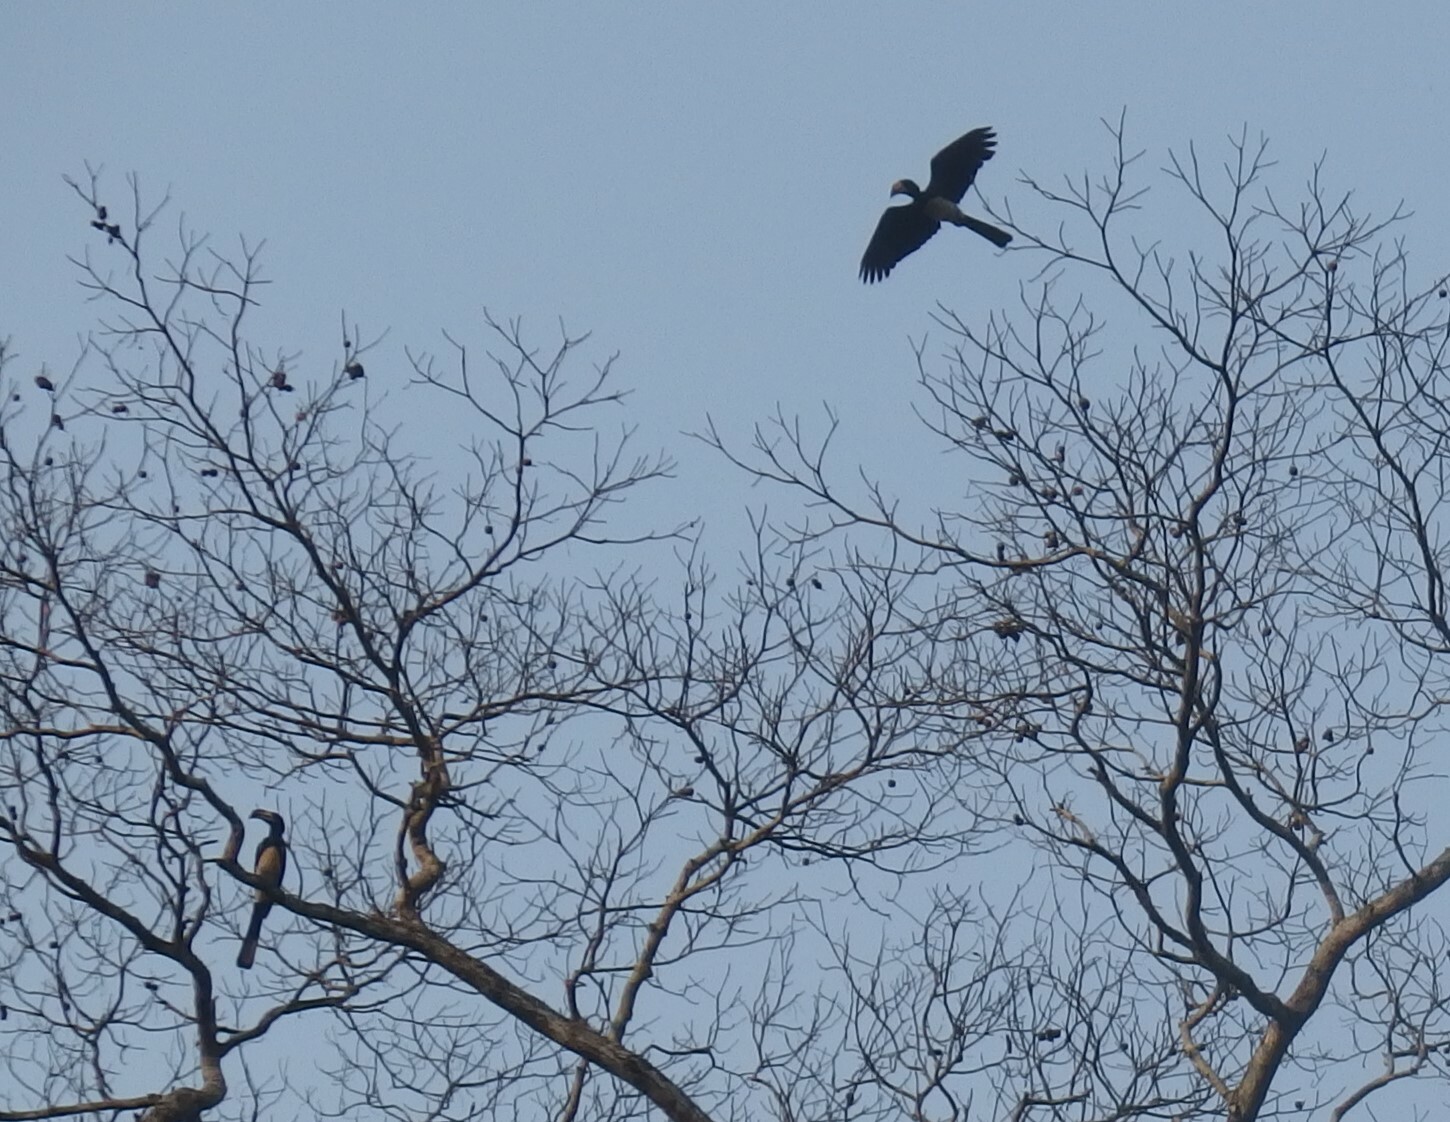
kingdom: Animalia
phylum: Chordata
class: Aves
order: Bucerotiformes
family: Bucerotidae
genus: Lophoceros
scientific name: Lophoceros fasciatus
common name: African pied hornbill
